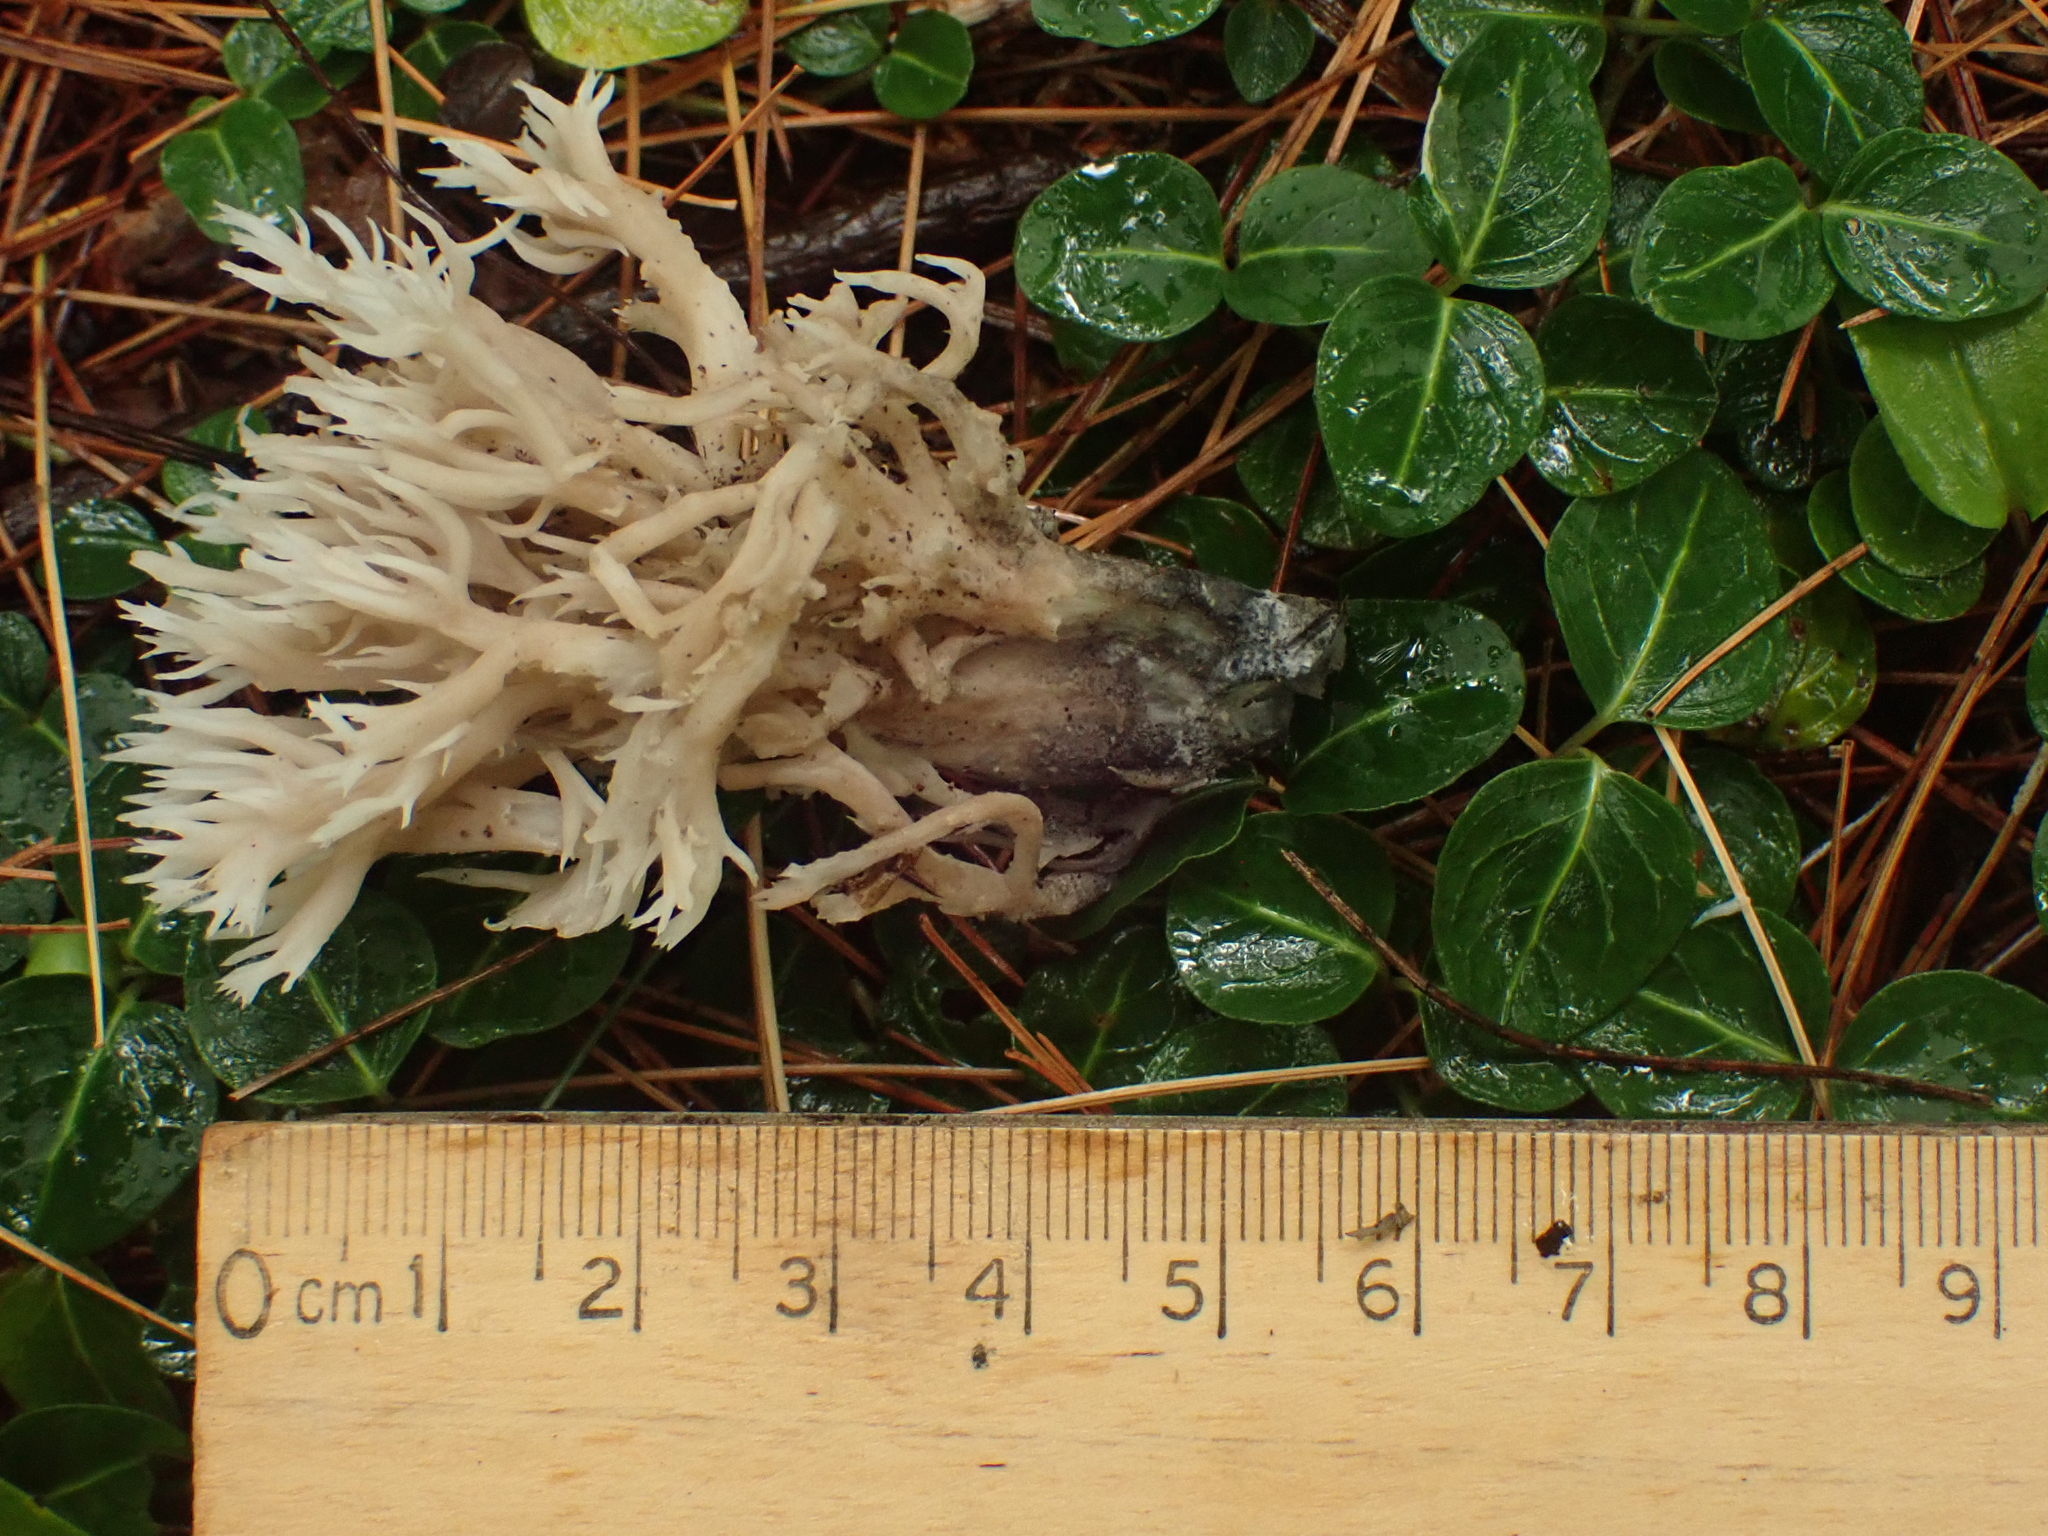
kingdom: Fungi
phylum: Basidiomycota
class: Agaricomycetes
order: Cantharellales
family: Hydnaceae
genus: Clavulina
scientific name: Clavulina coralloides
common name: Crested coral
